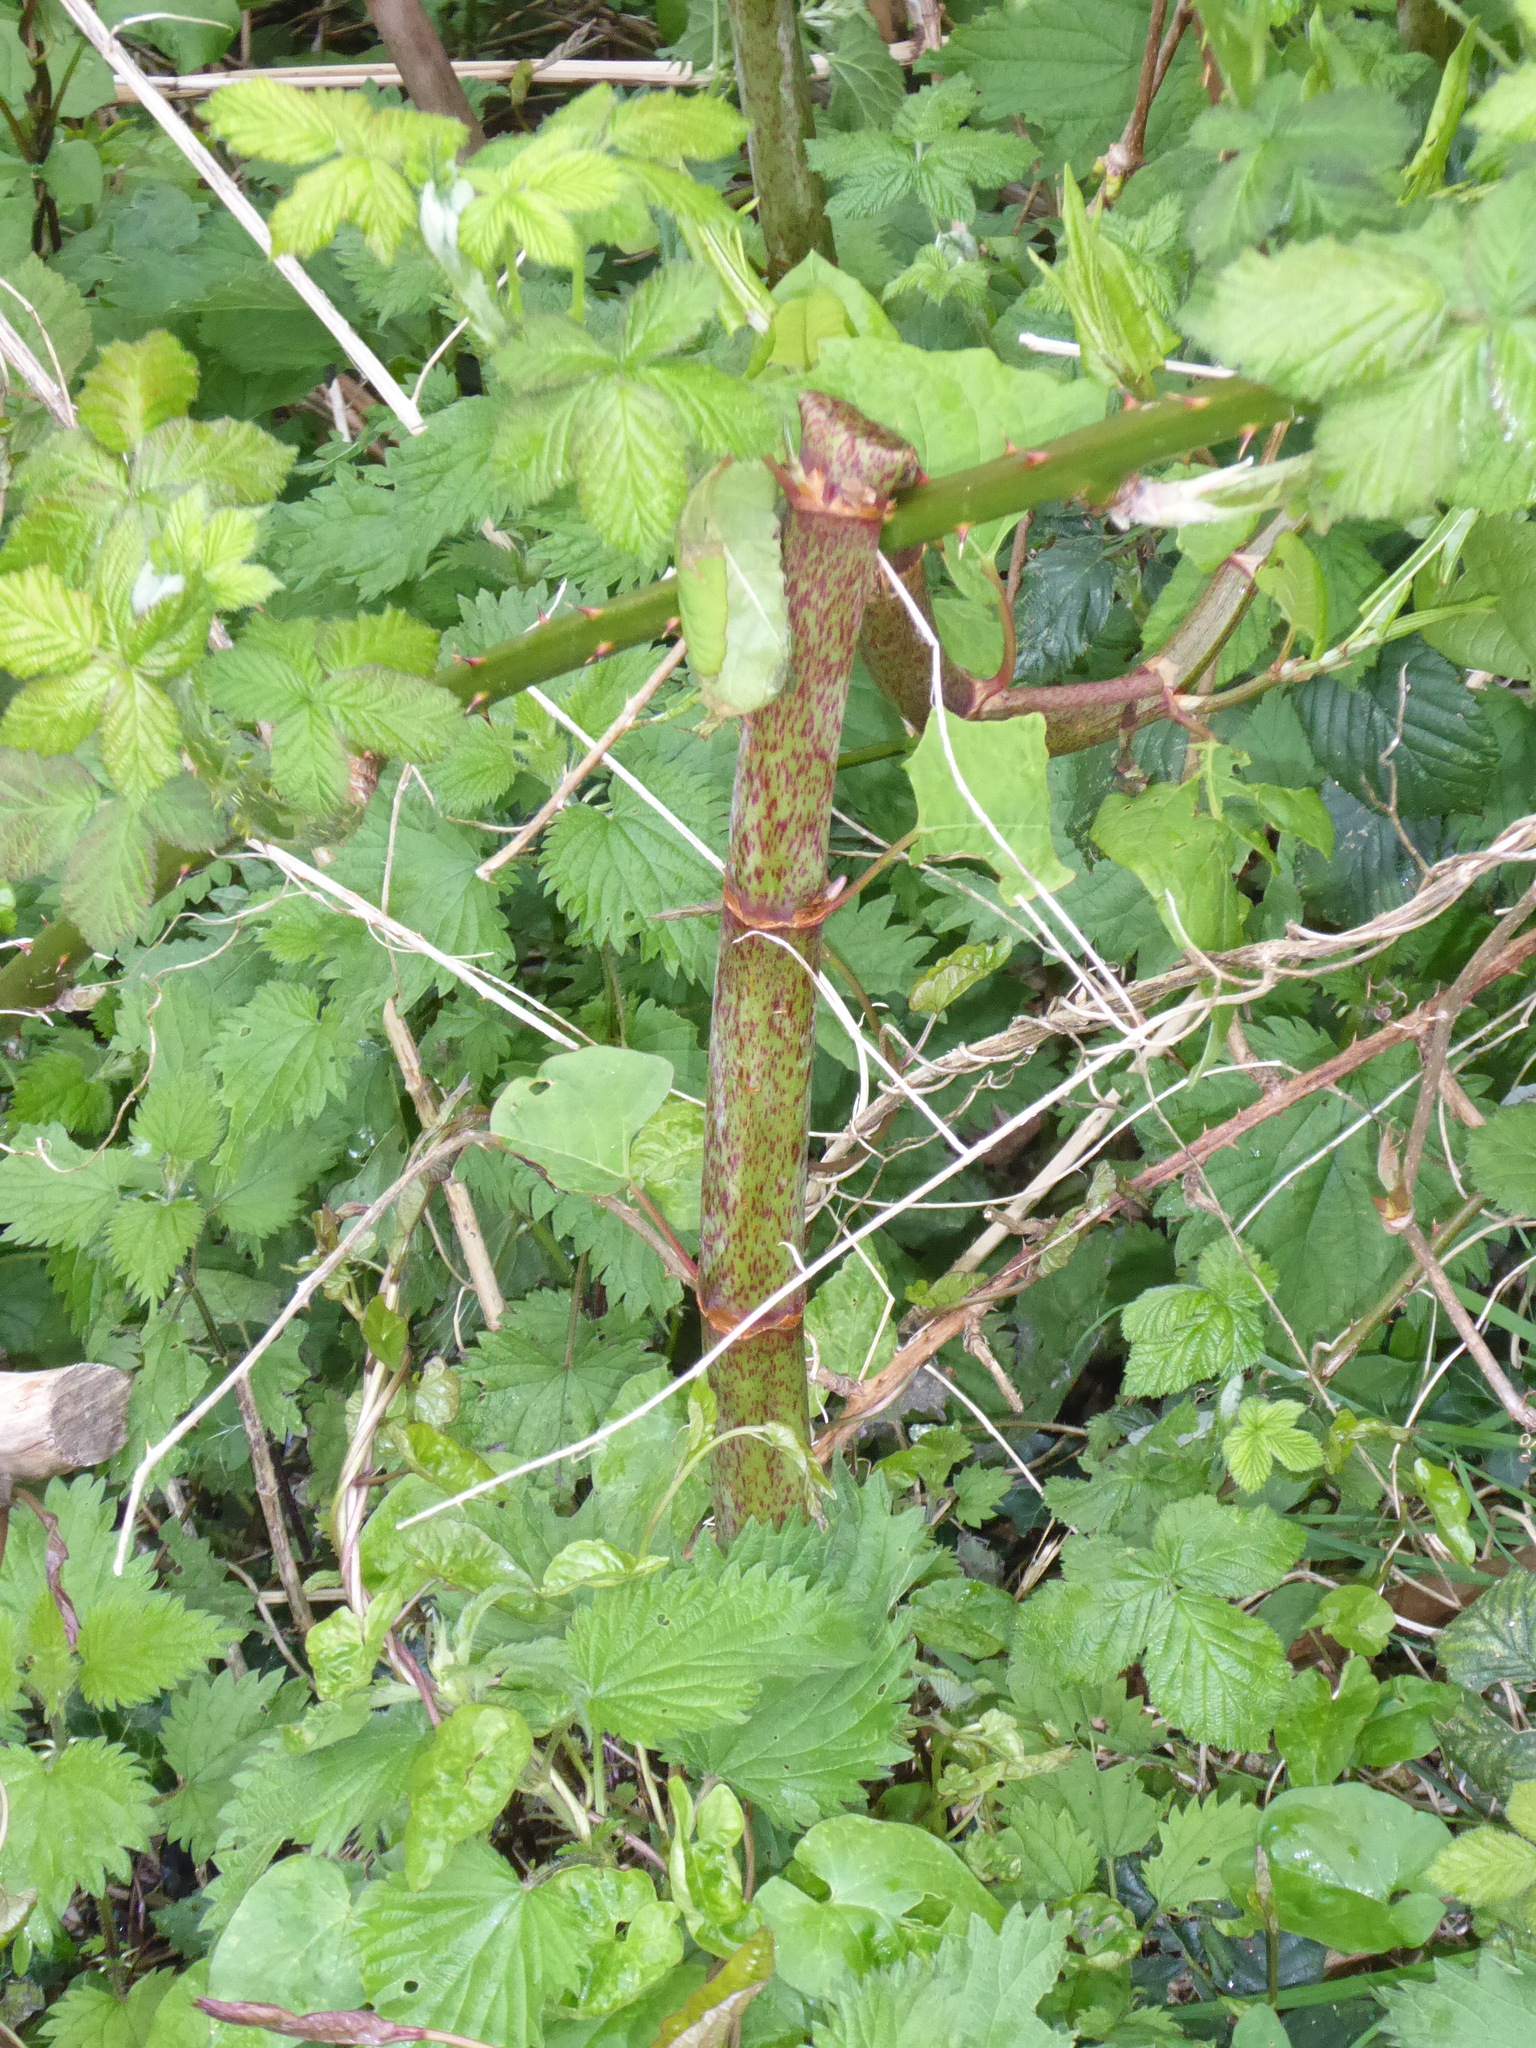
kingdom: Plantae
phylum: Tracheophyta
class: Magnoliopsida
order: Caryophyllales
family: Polygonaceae
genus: Reynoutria
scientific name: Reynoutria japonica
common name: Japanese knotweed
